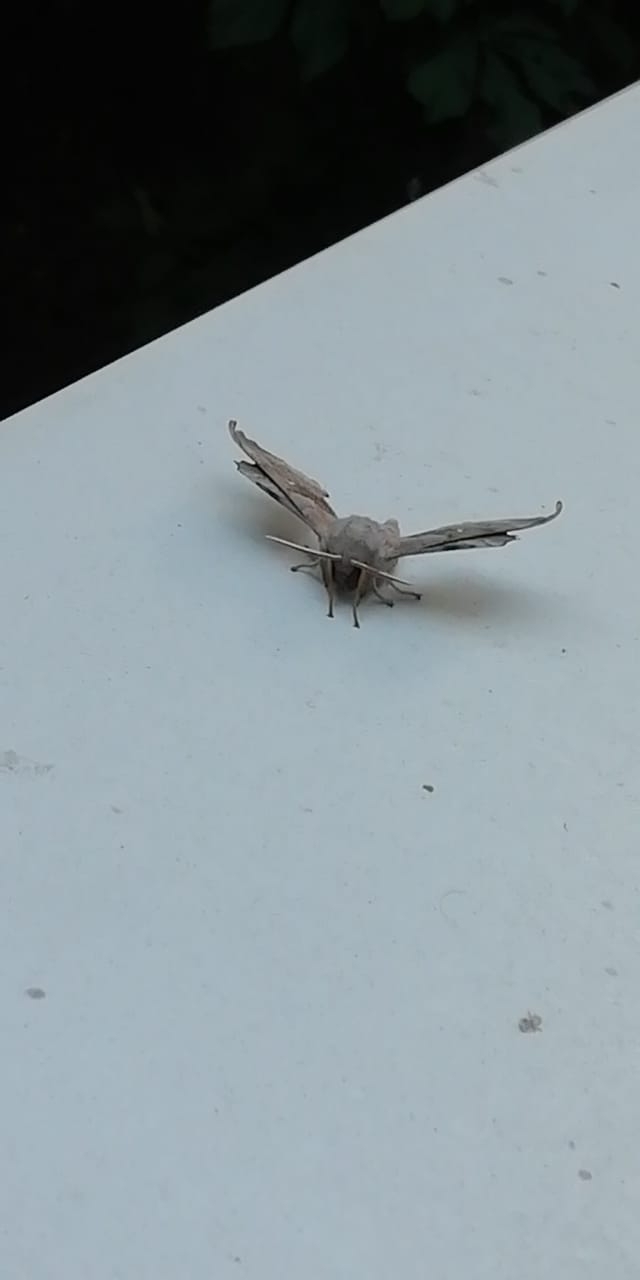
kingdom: Animalia
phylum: Arthropoda
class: Insecta
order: Lepidoptera
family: Sphingidae
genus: Laothoe
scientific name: Laothoe populi
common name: Poplar hawk-moth
